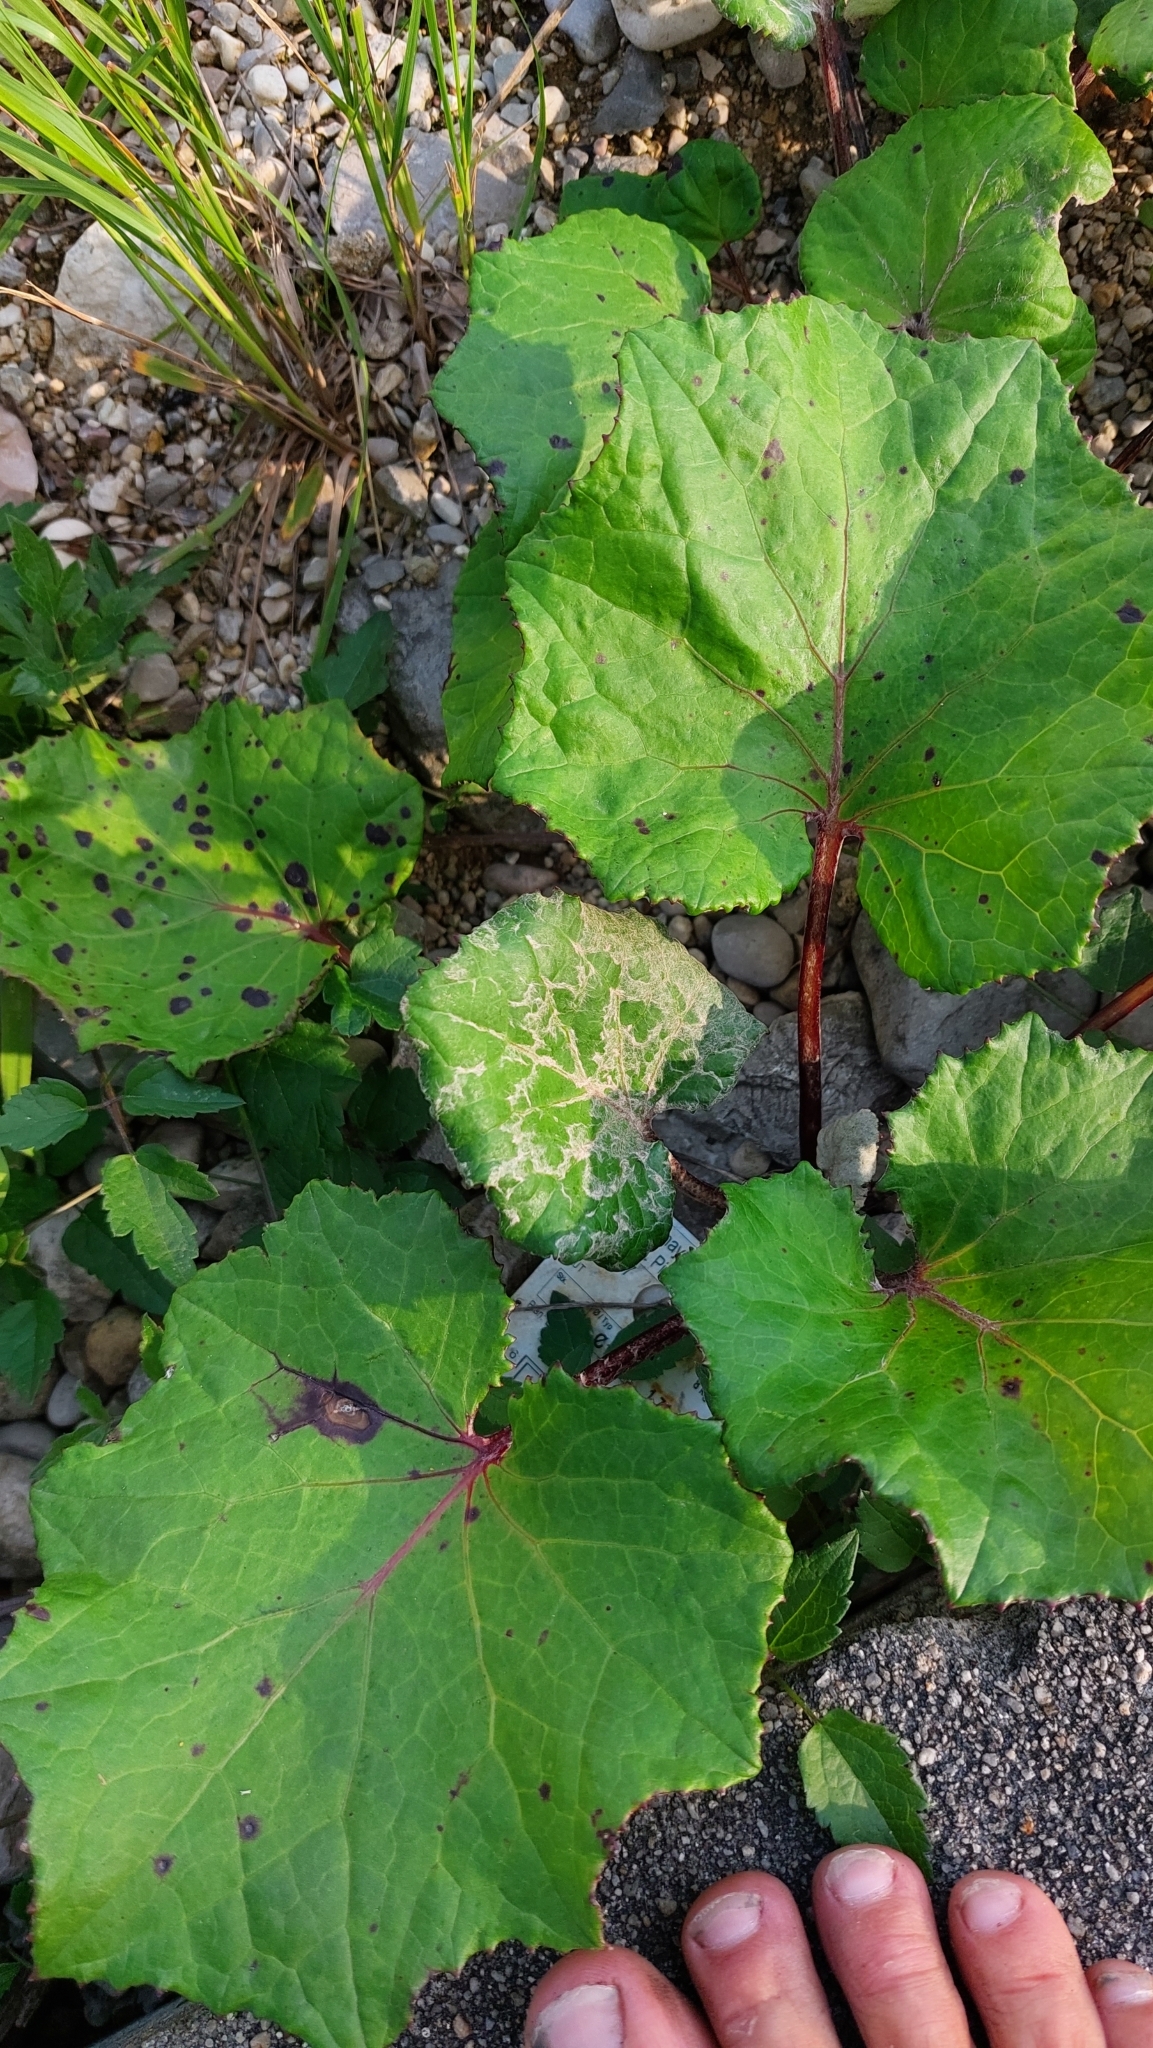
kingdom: Plantae
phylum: Tracheophyta
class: Magnoliopsida
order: Asterales
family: Asteraceae
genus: Tussilago
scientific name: Tussilago farfara
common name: Coltsfoot
